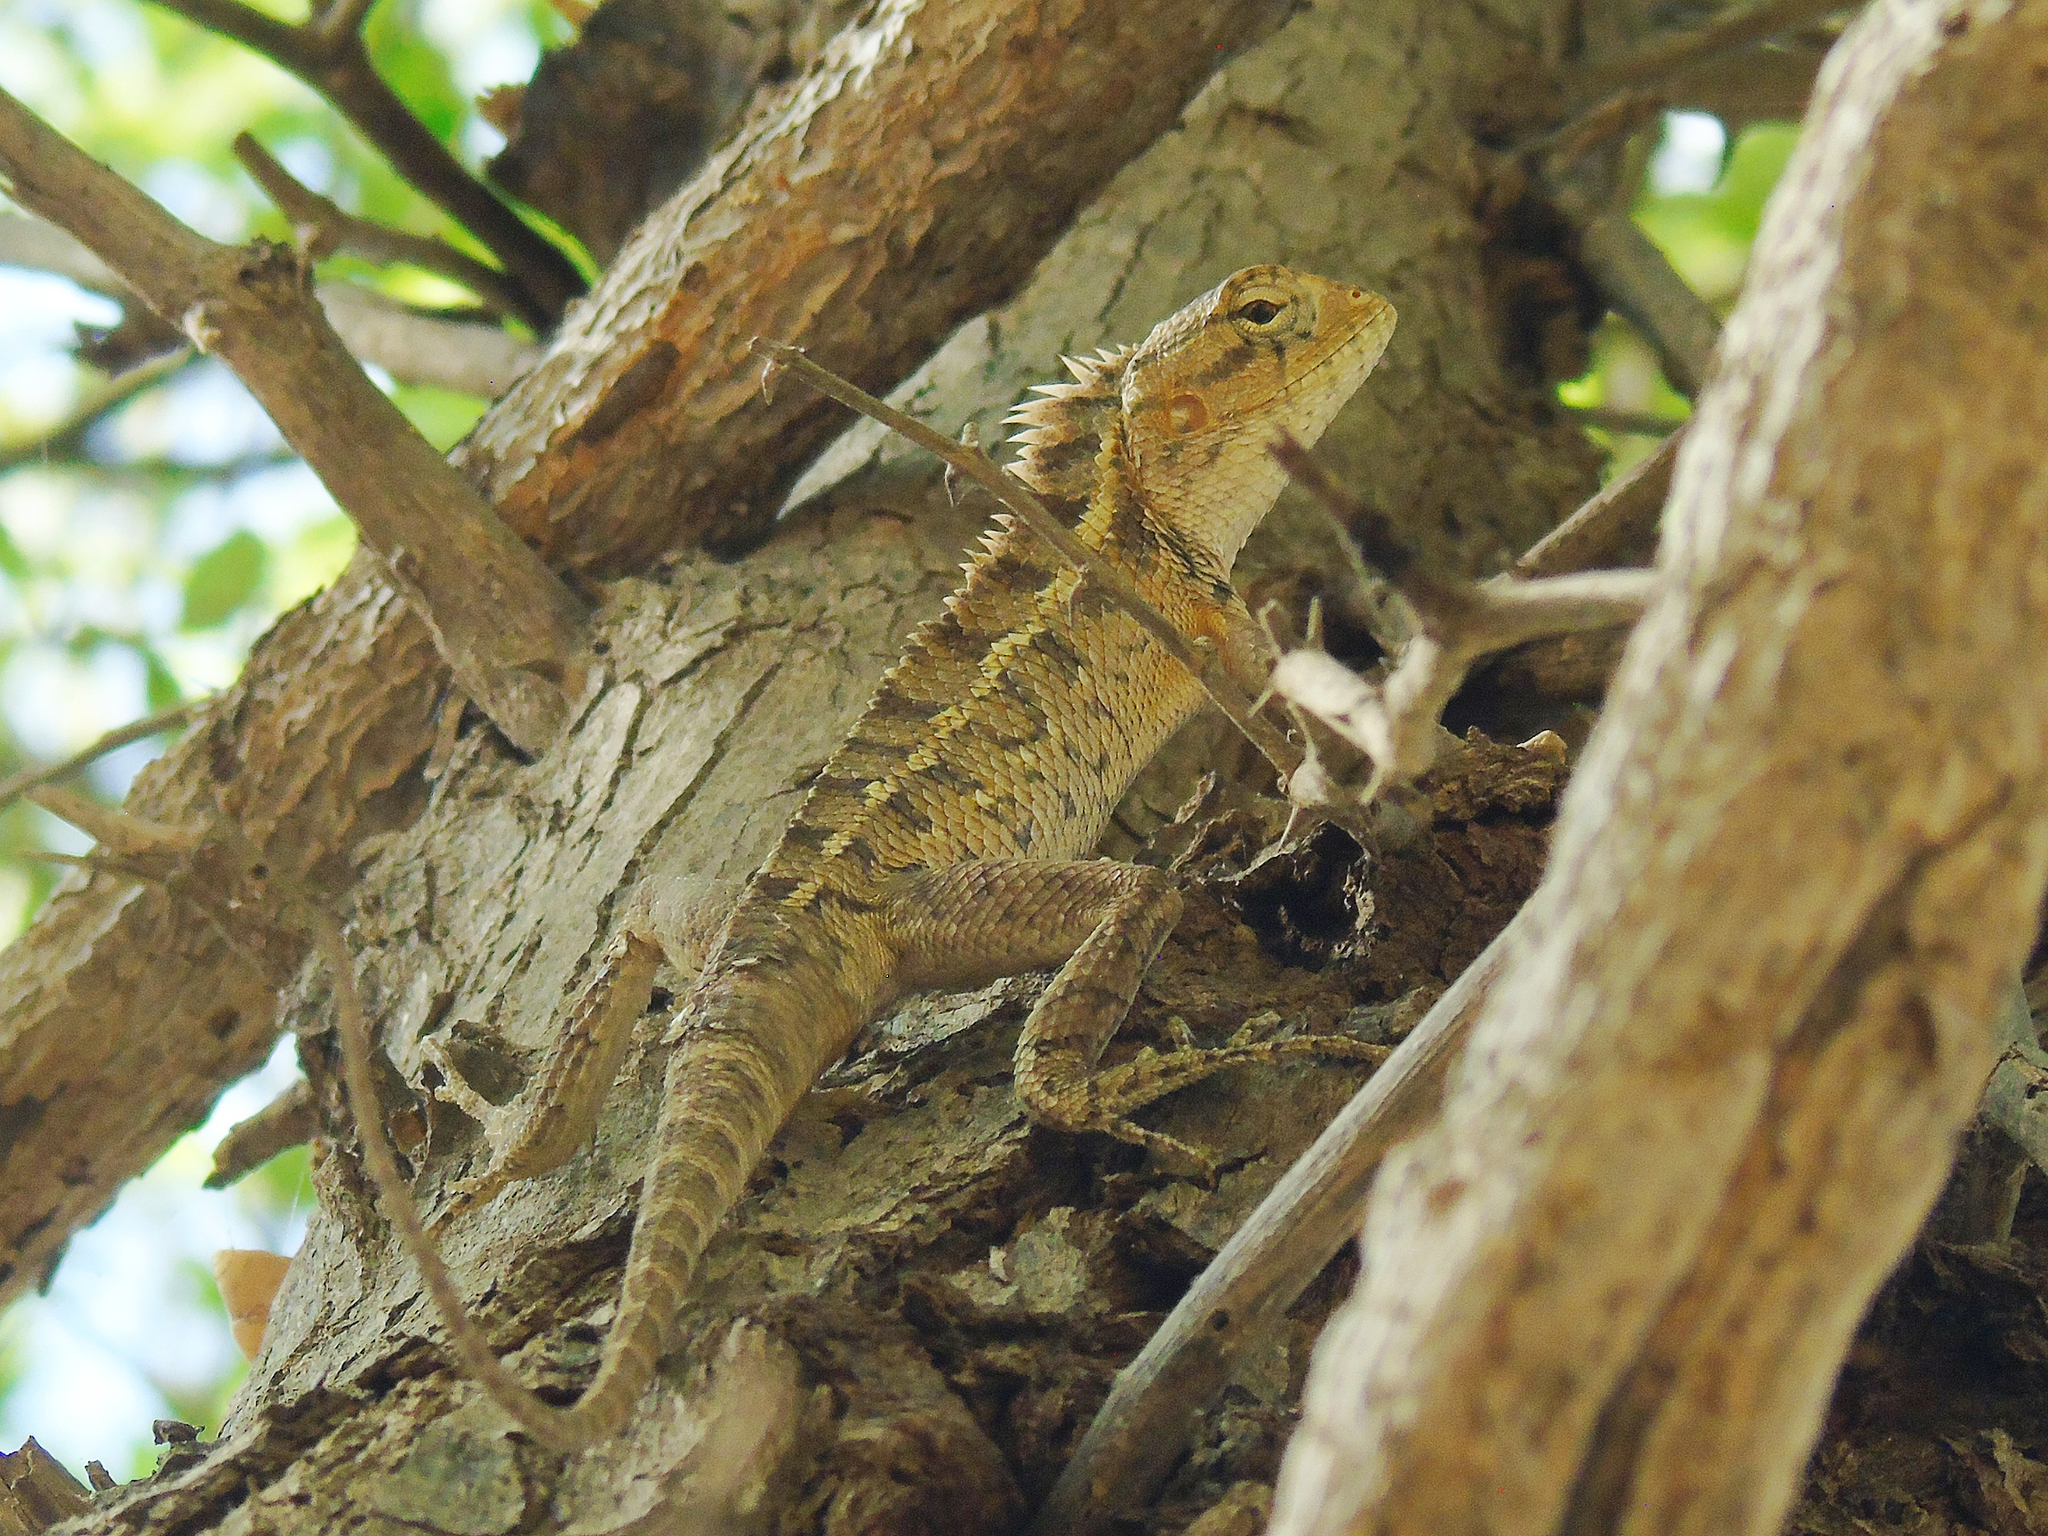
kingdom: Animalia
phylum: Chordata
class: Squamata
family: Agamidae
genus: Calotes
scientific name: Calotes versicolor
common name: Oriental garden lizard
